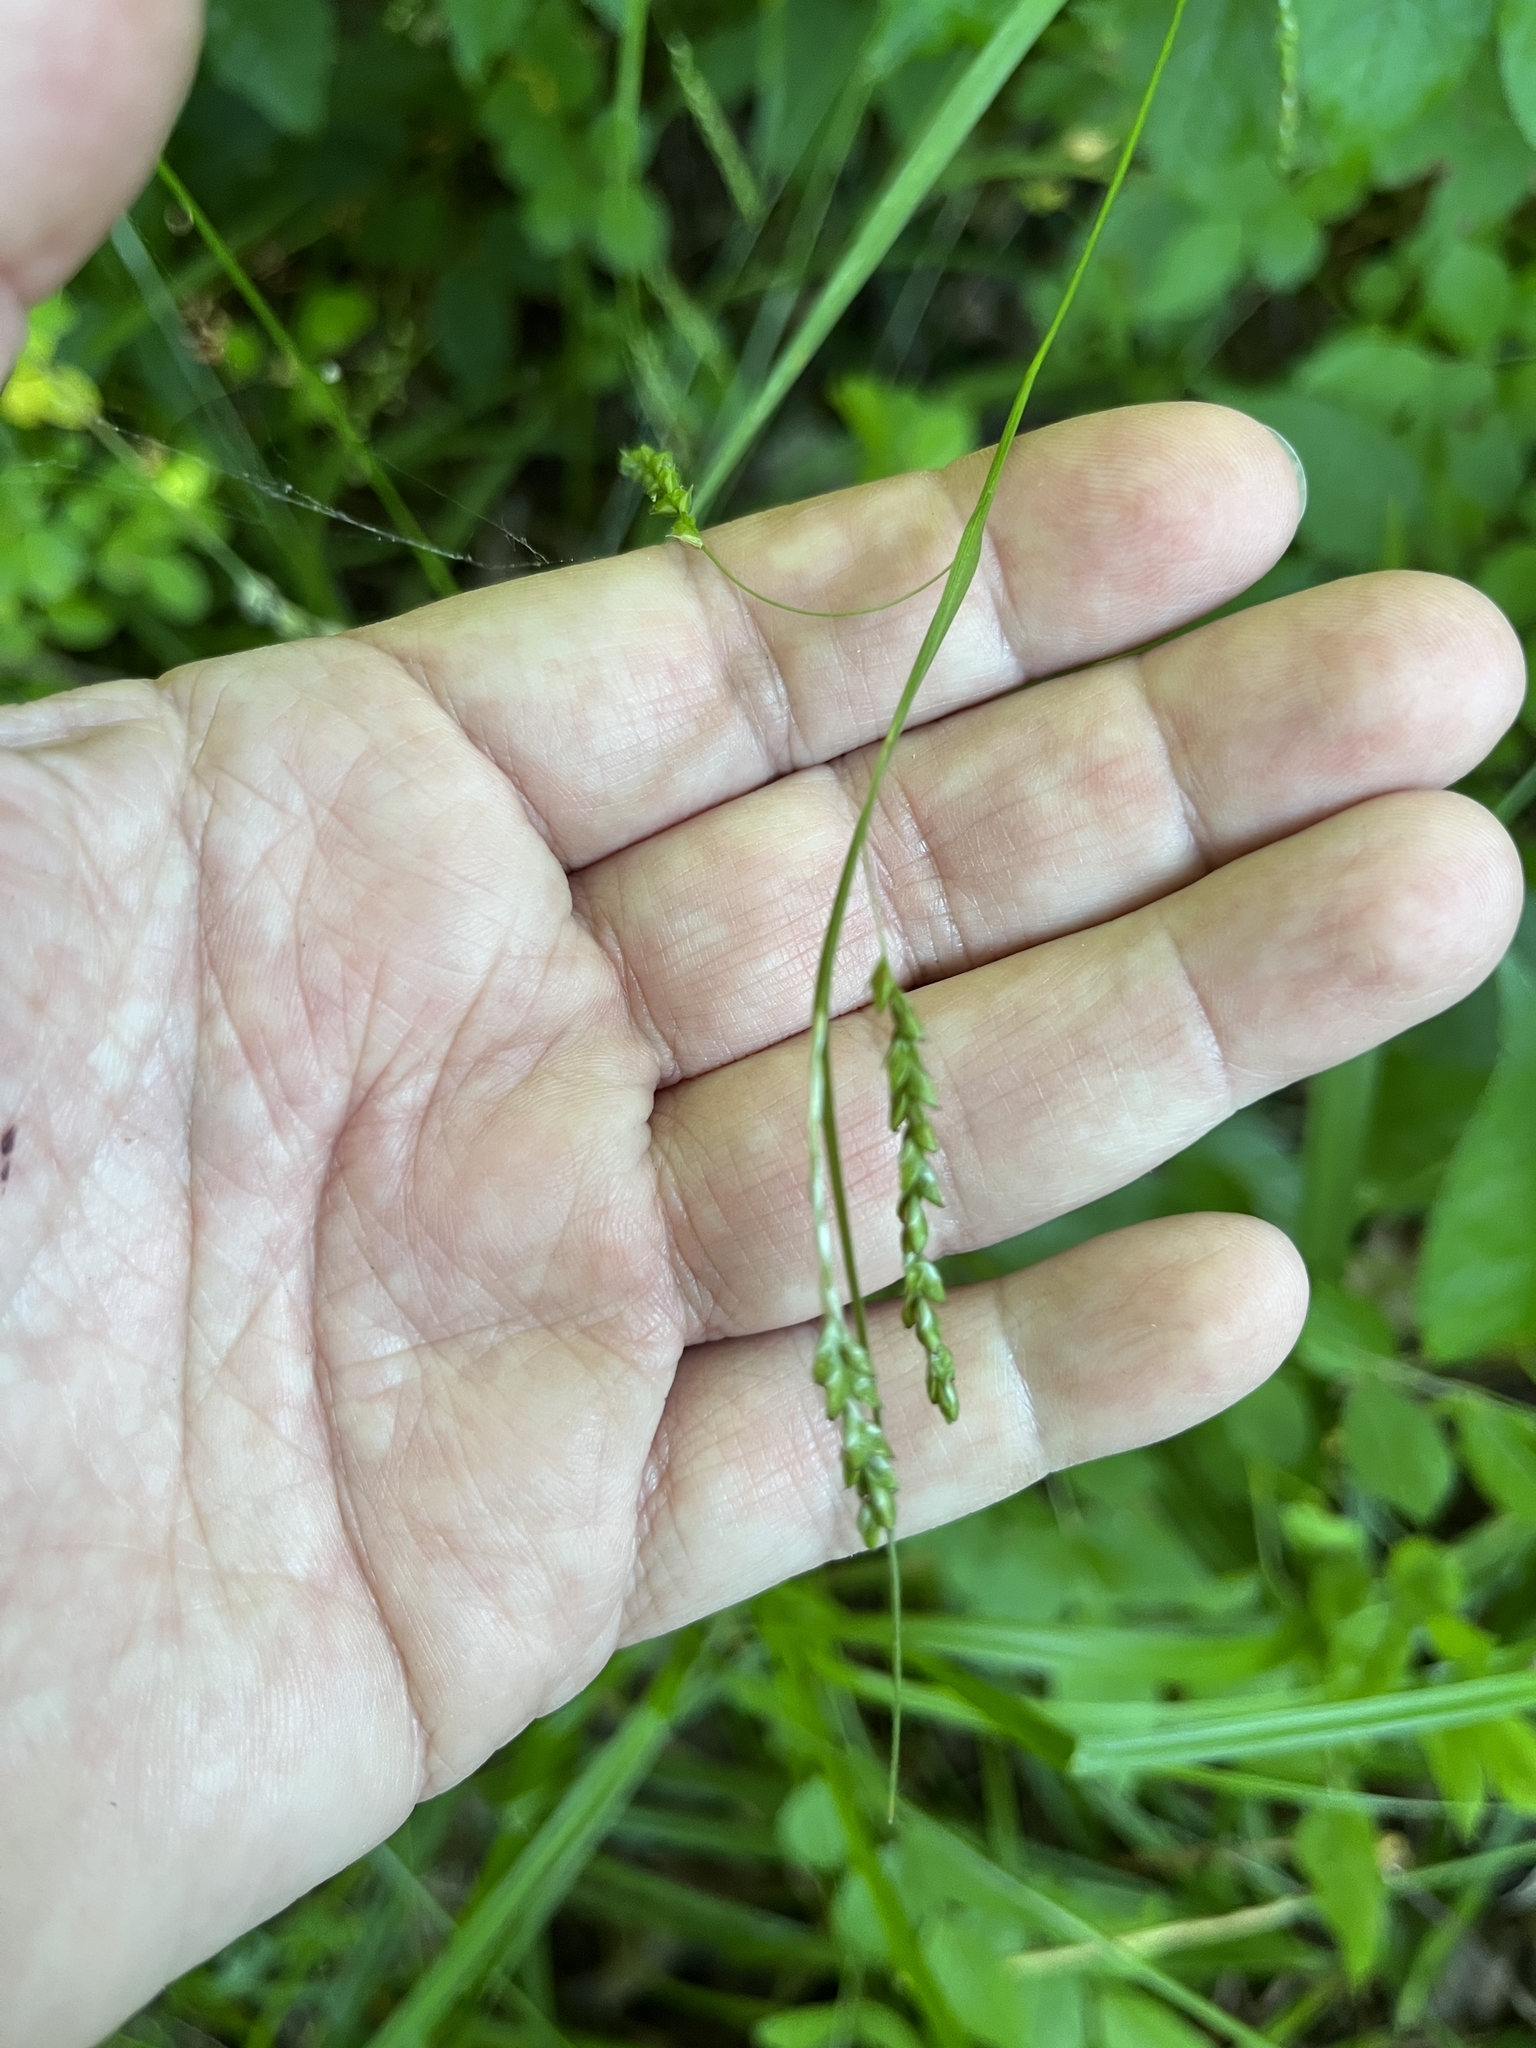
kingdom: Plantae
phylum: Tracheophyta
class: Liliopsida
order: Poales
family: Cyperaceae
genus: Carex
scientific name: Carex gracillima
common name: Graceful sedge
